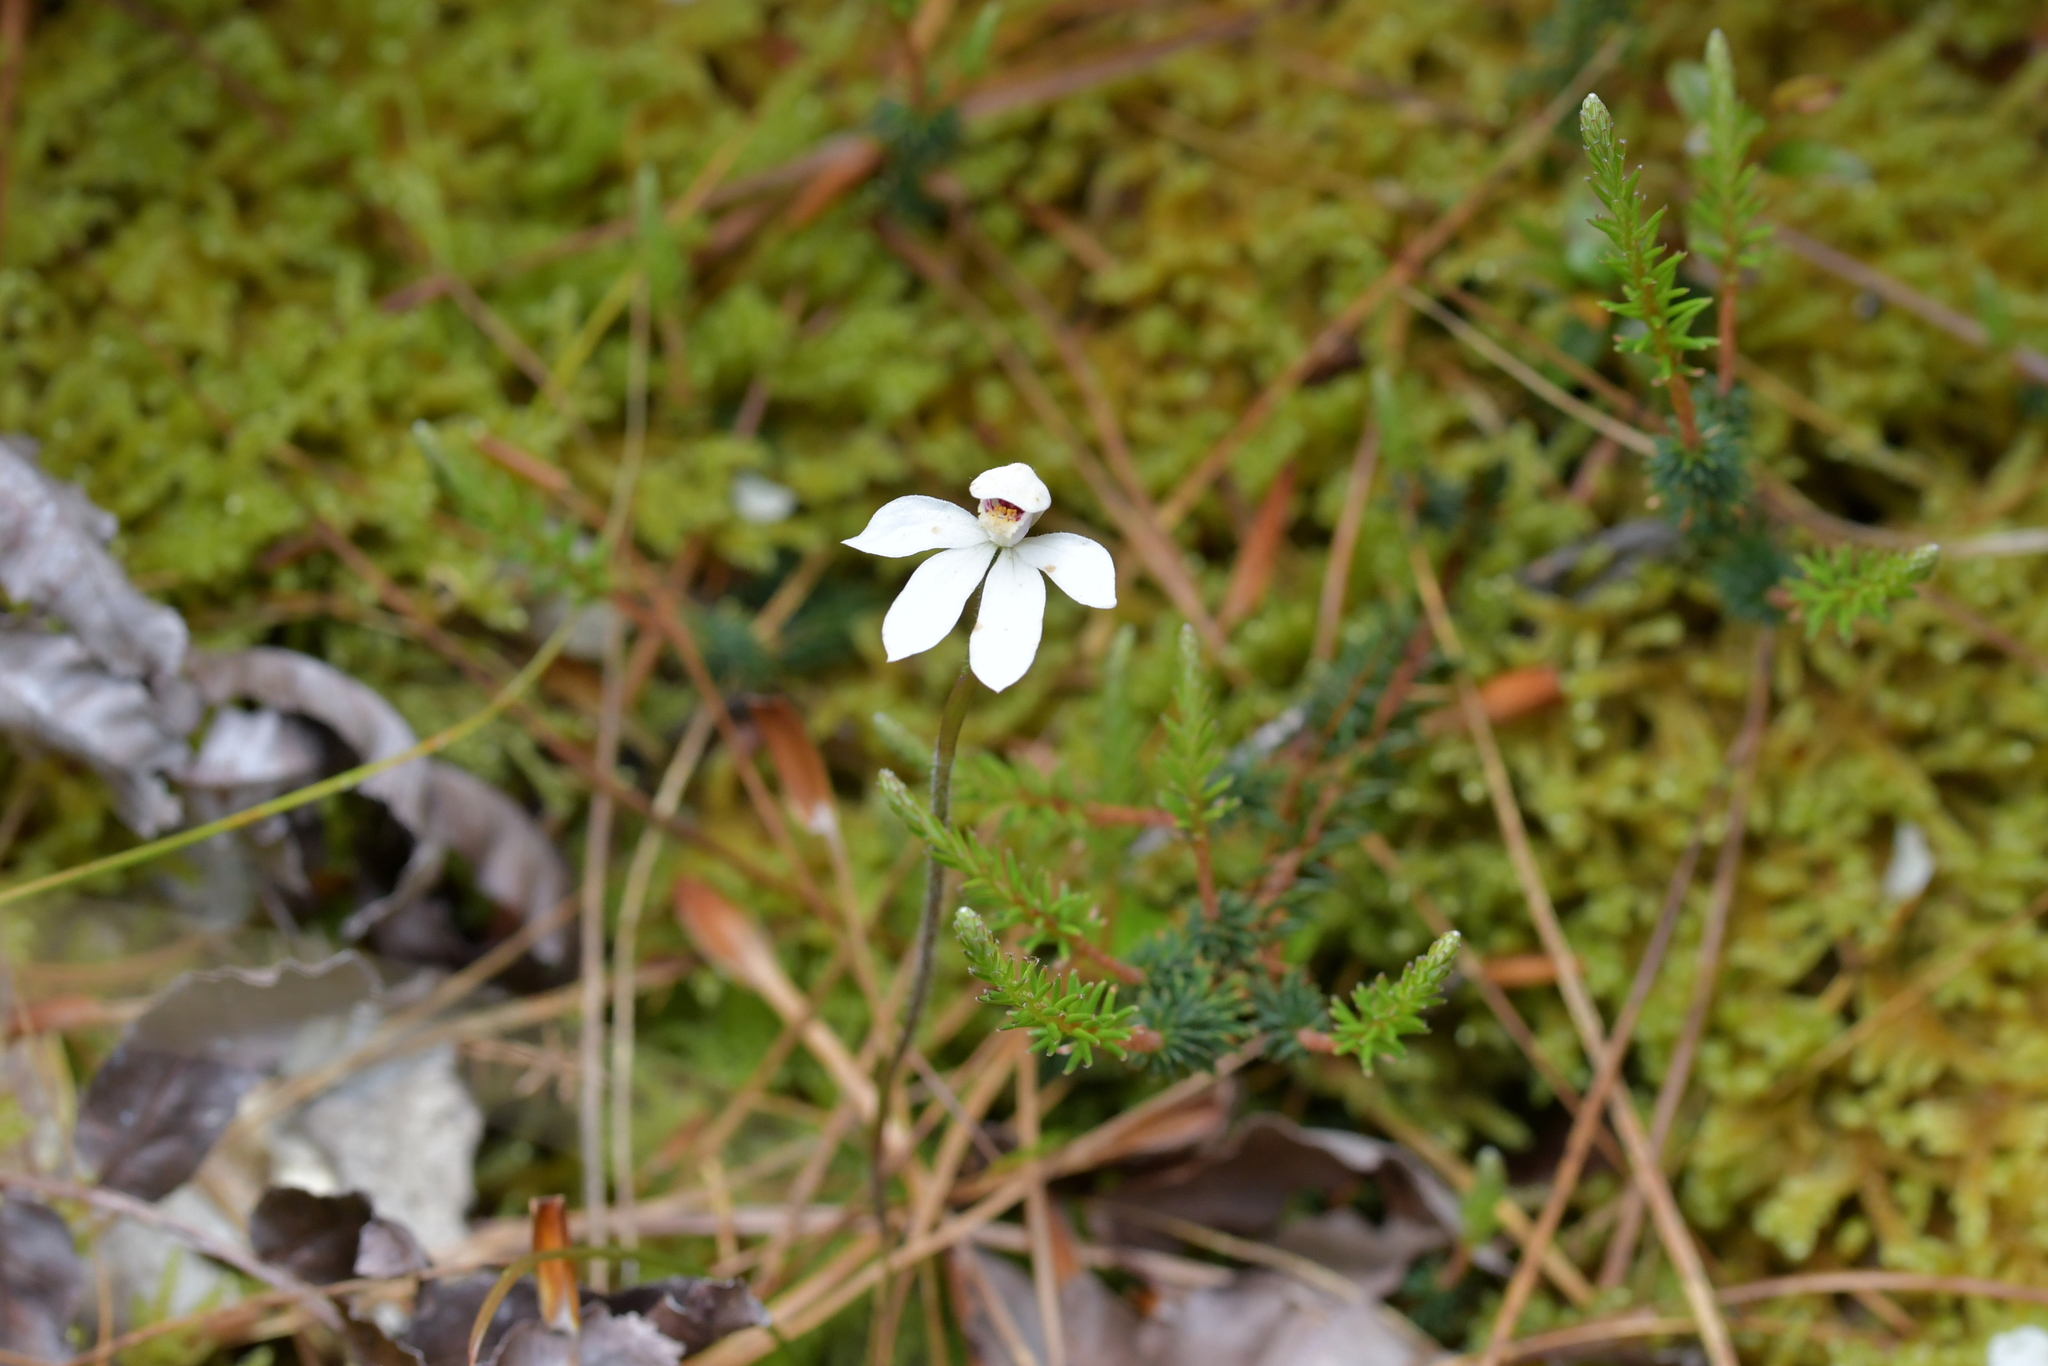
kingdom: Plantae
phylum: Tracheophyta
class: Liliopsida
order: Asparagales
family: Orchidaceae
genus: Caladenia
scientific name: Caladenia lyallii
